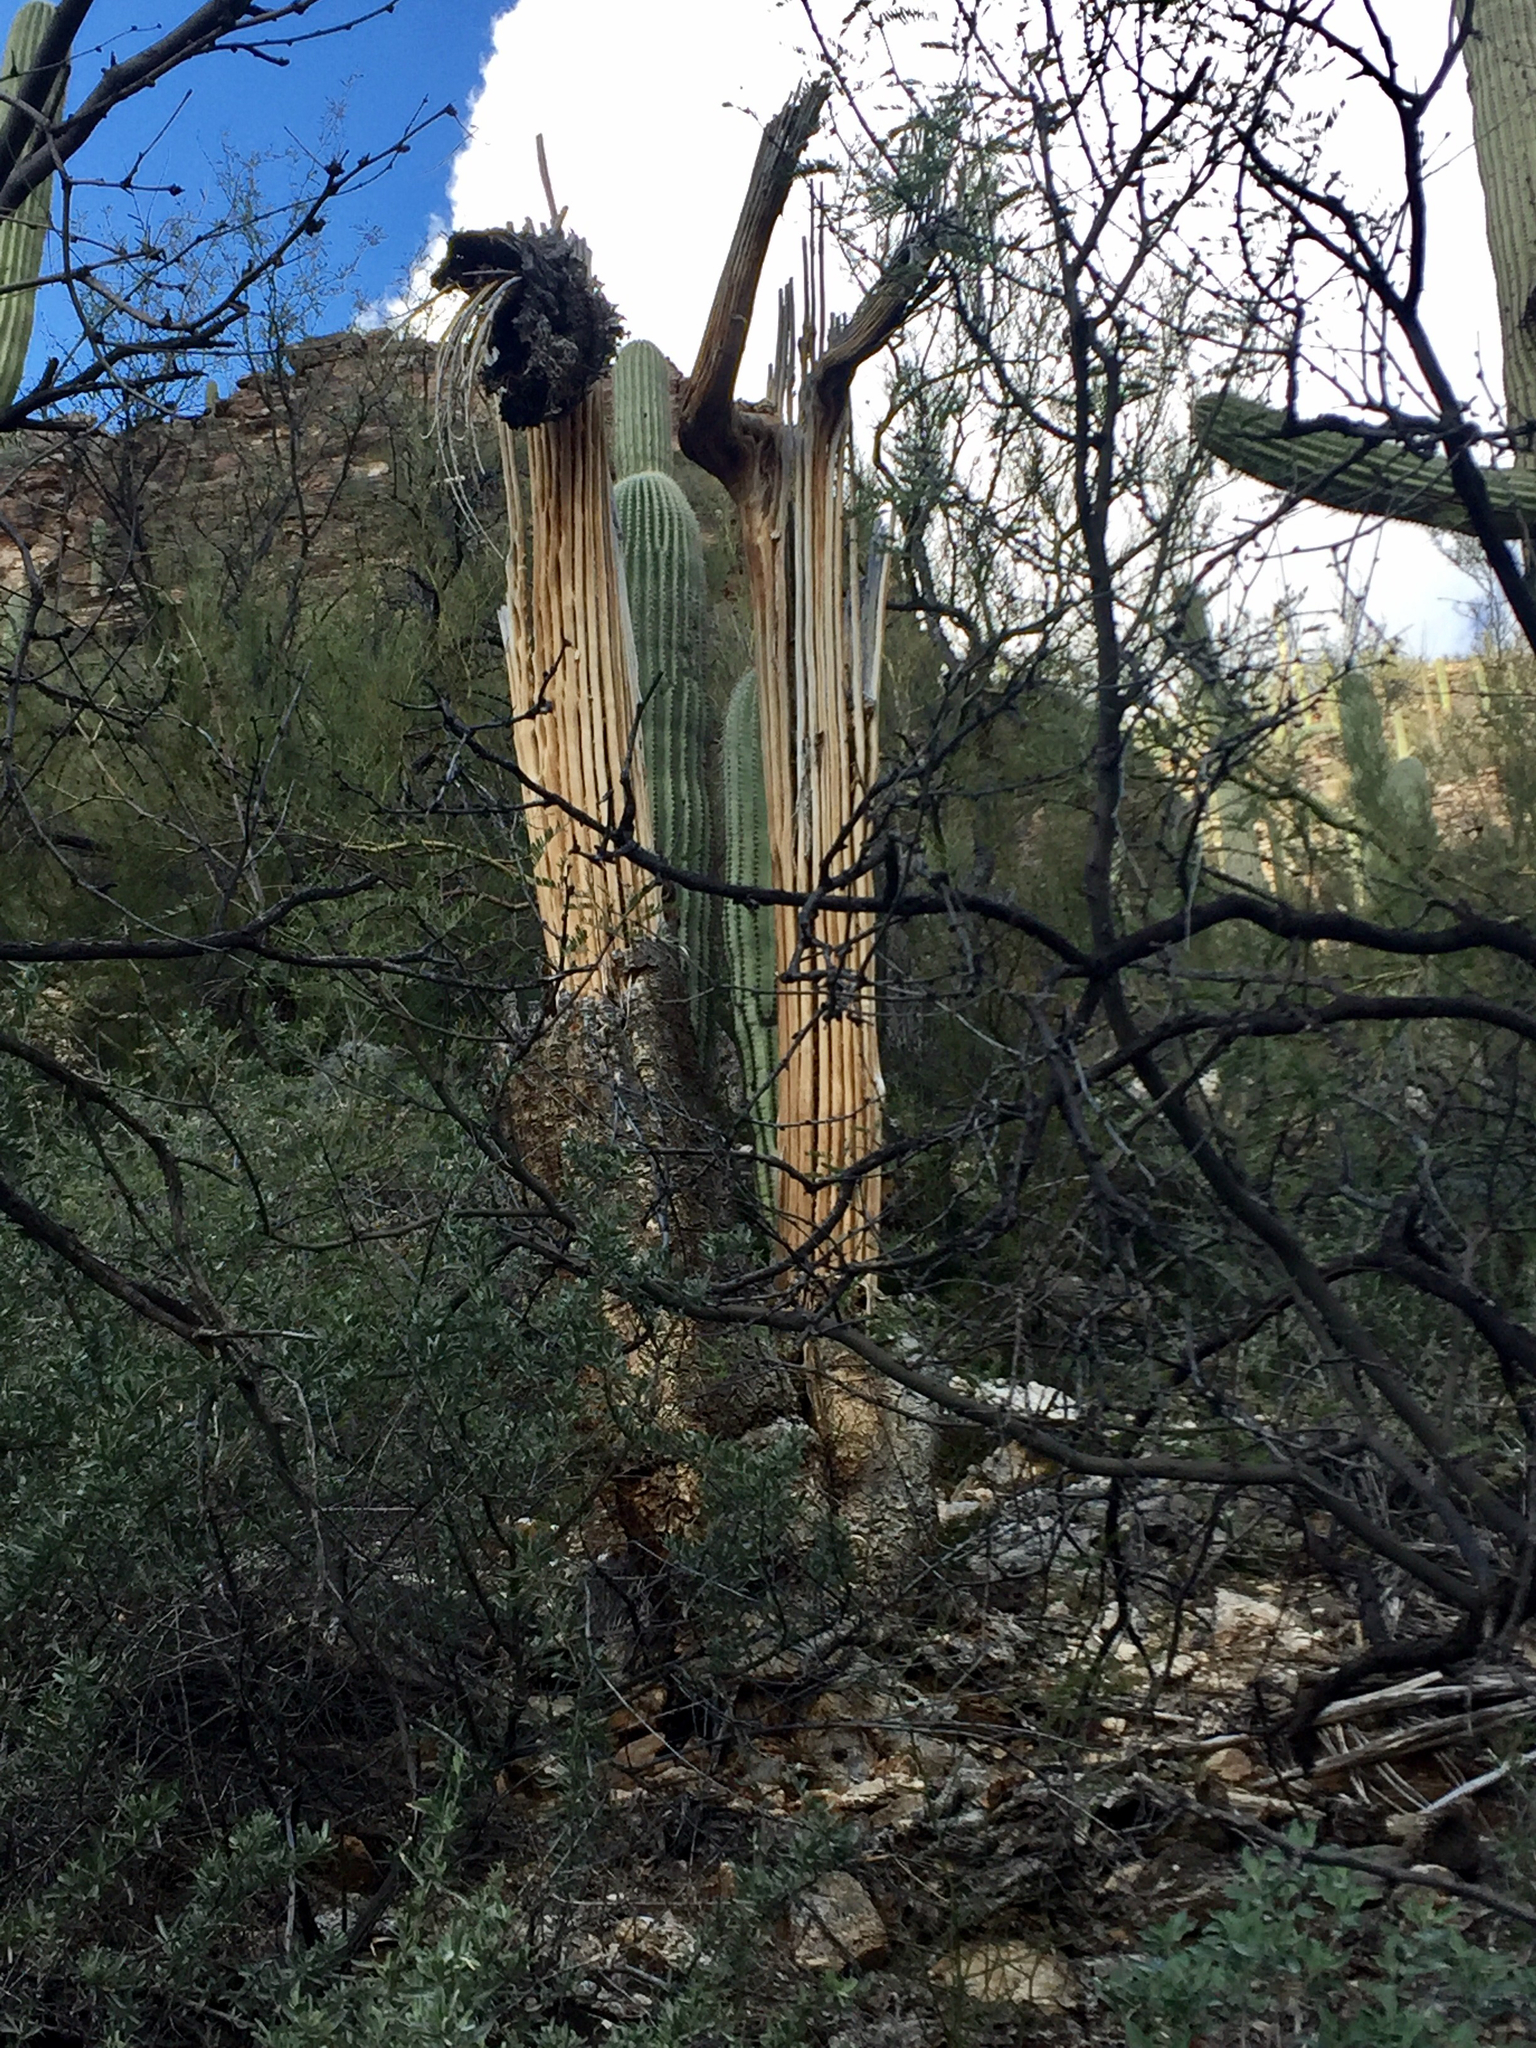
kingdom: Plantae
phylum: Tracheophyta
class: Magnoliopsida
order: Caryophyllales
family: Cactaceae
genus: Carnegiea
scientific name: Carnegiea gigantea
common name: Saguaro
